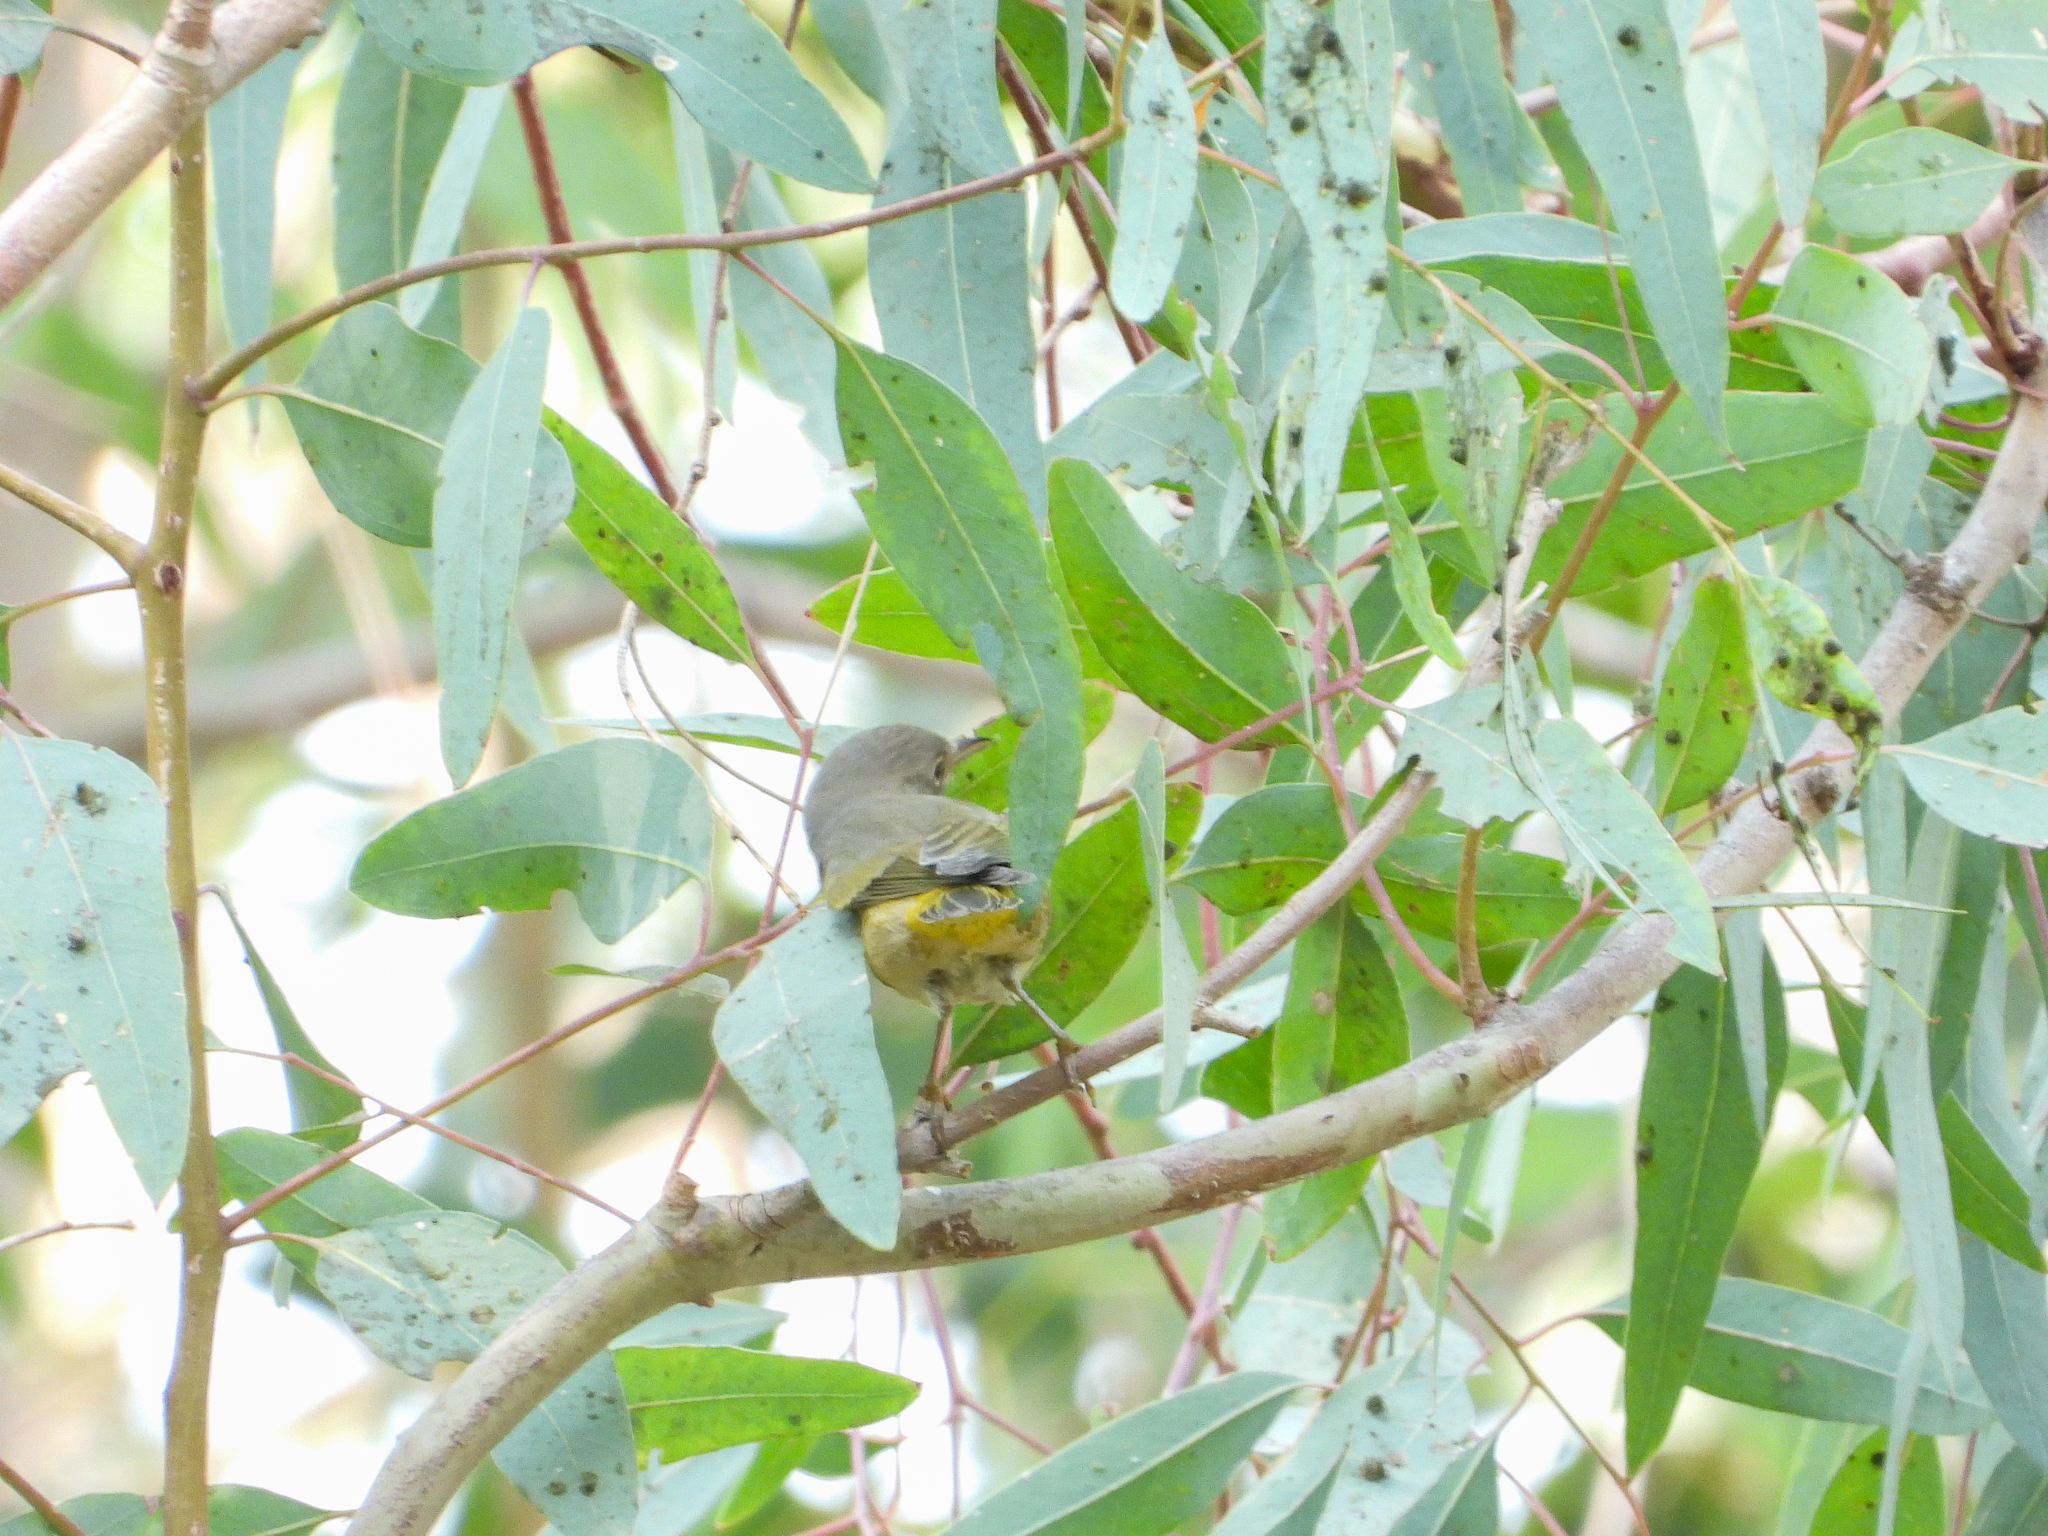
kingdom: Animalia
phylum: Chordata
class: Aves
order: Passeriformes
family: Parulidae
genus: Leiothlypis
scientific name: Leiothlypis ruficapilla
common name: Nashville warbler
